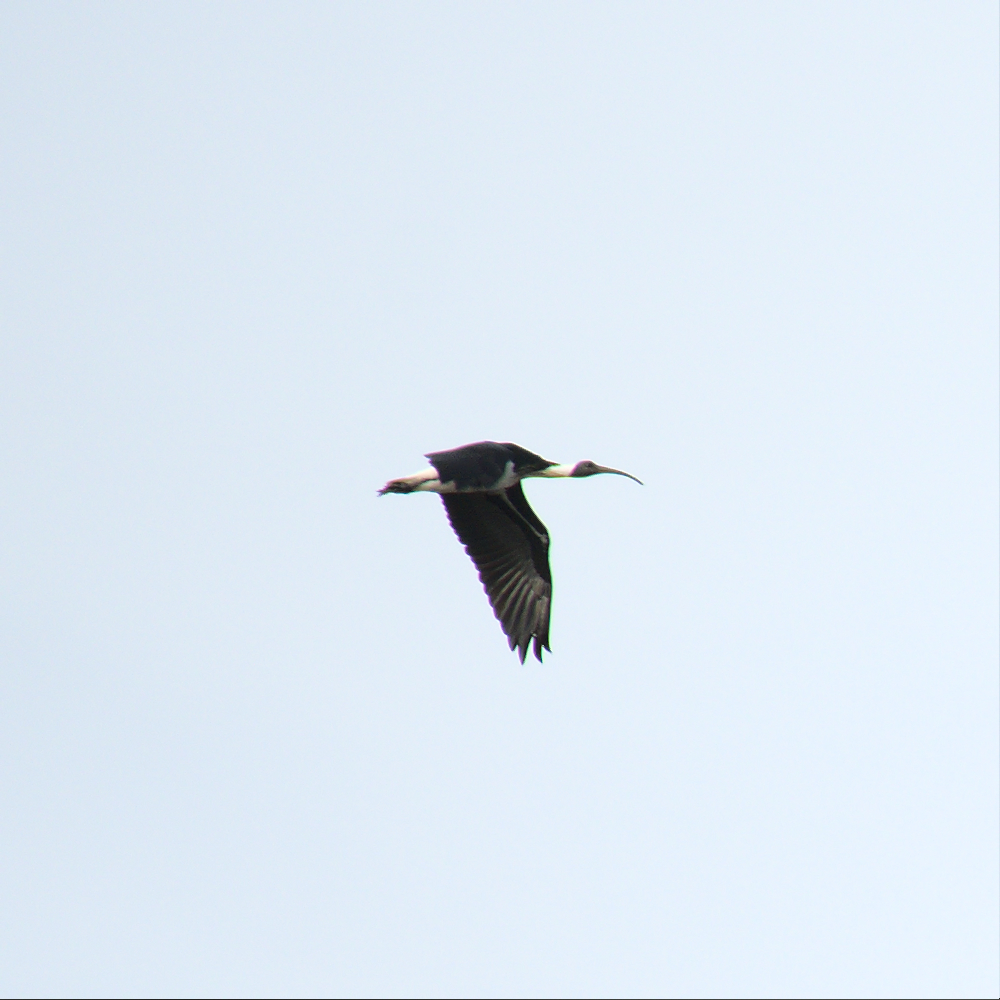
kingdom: Animalia
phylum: Chordata
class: Aves
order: Pelecaniformes
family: Threskiornithidae
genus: Threskiornis
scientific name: Threskiornis spinicollis
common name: Straw-necked ibis
